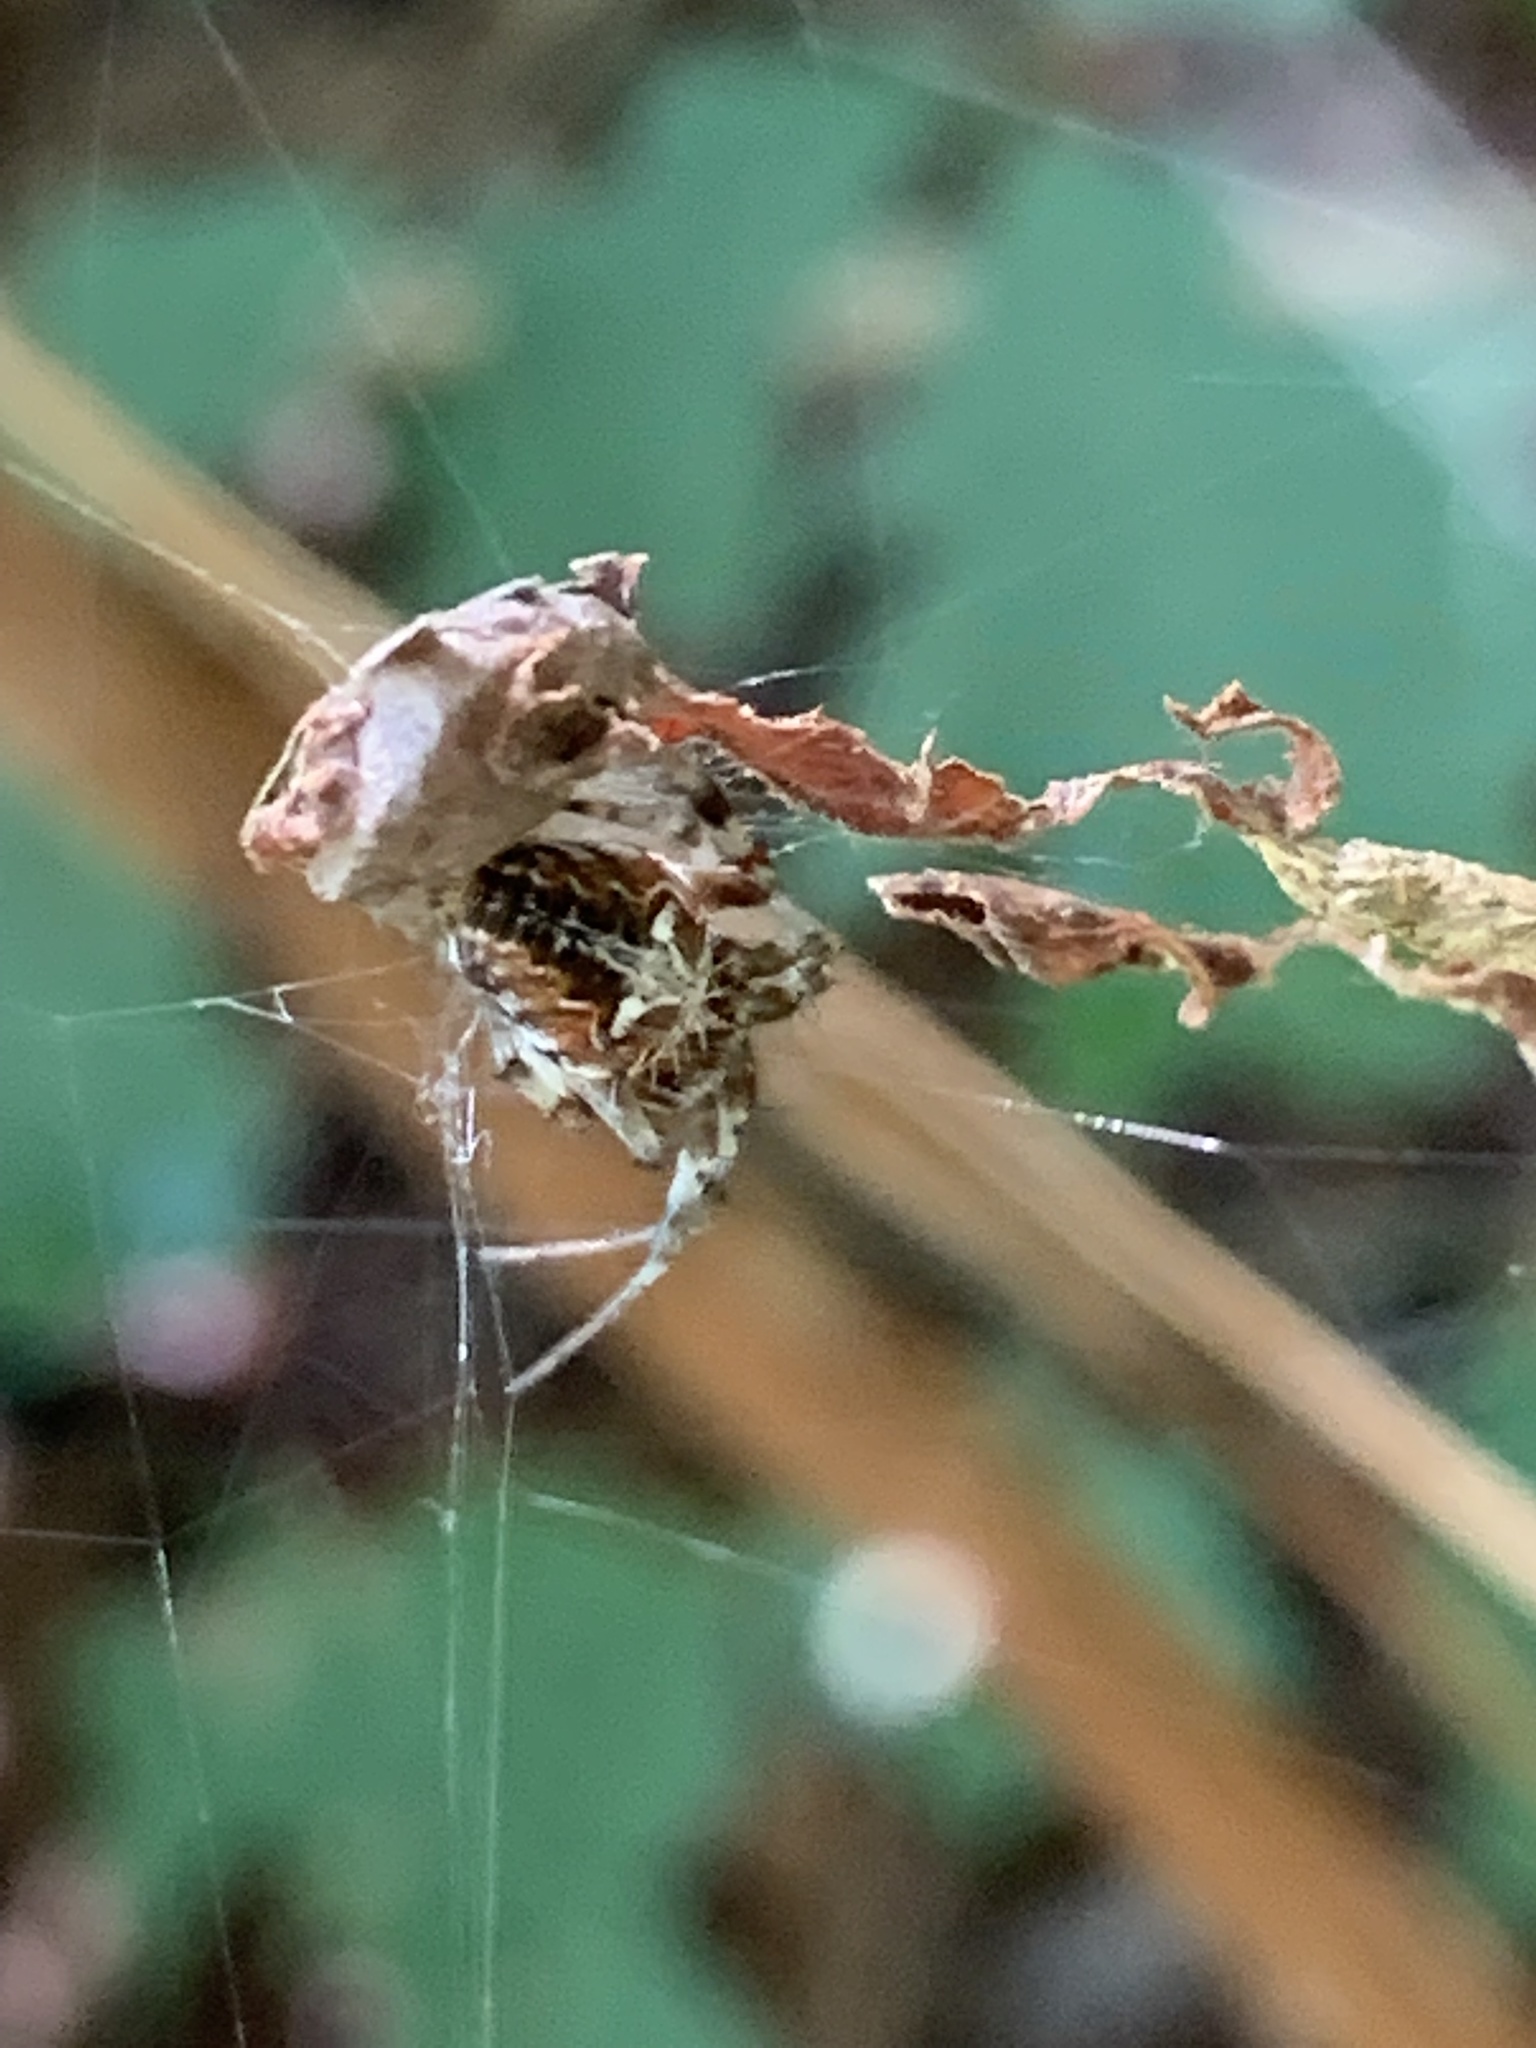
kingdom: Animalia
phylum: Arthropoda
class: Arachnida
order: Araneae
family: Araneidae
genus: Metepeira
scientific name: Metepeira labyrinthea
